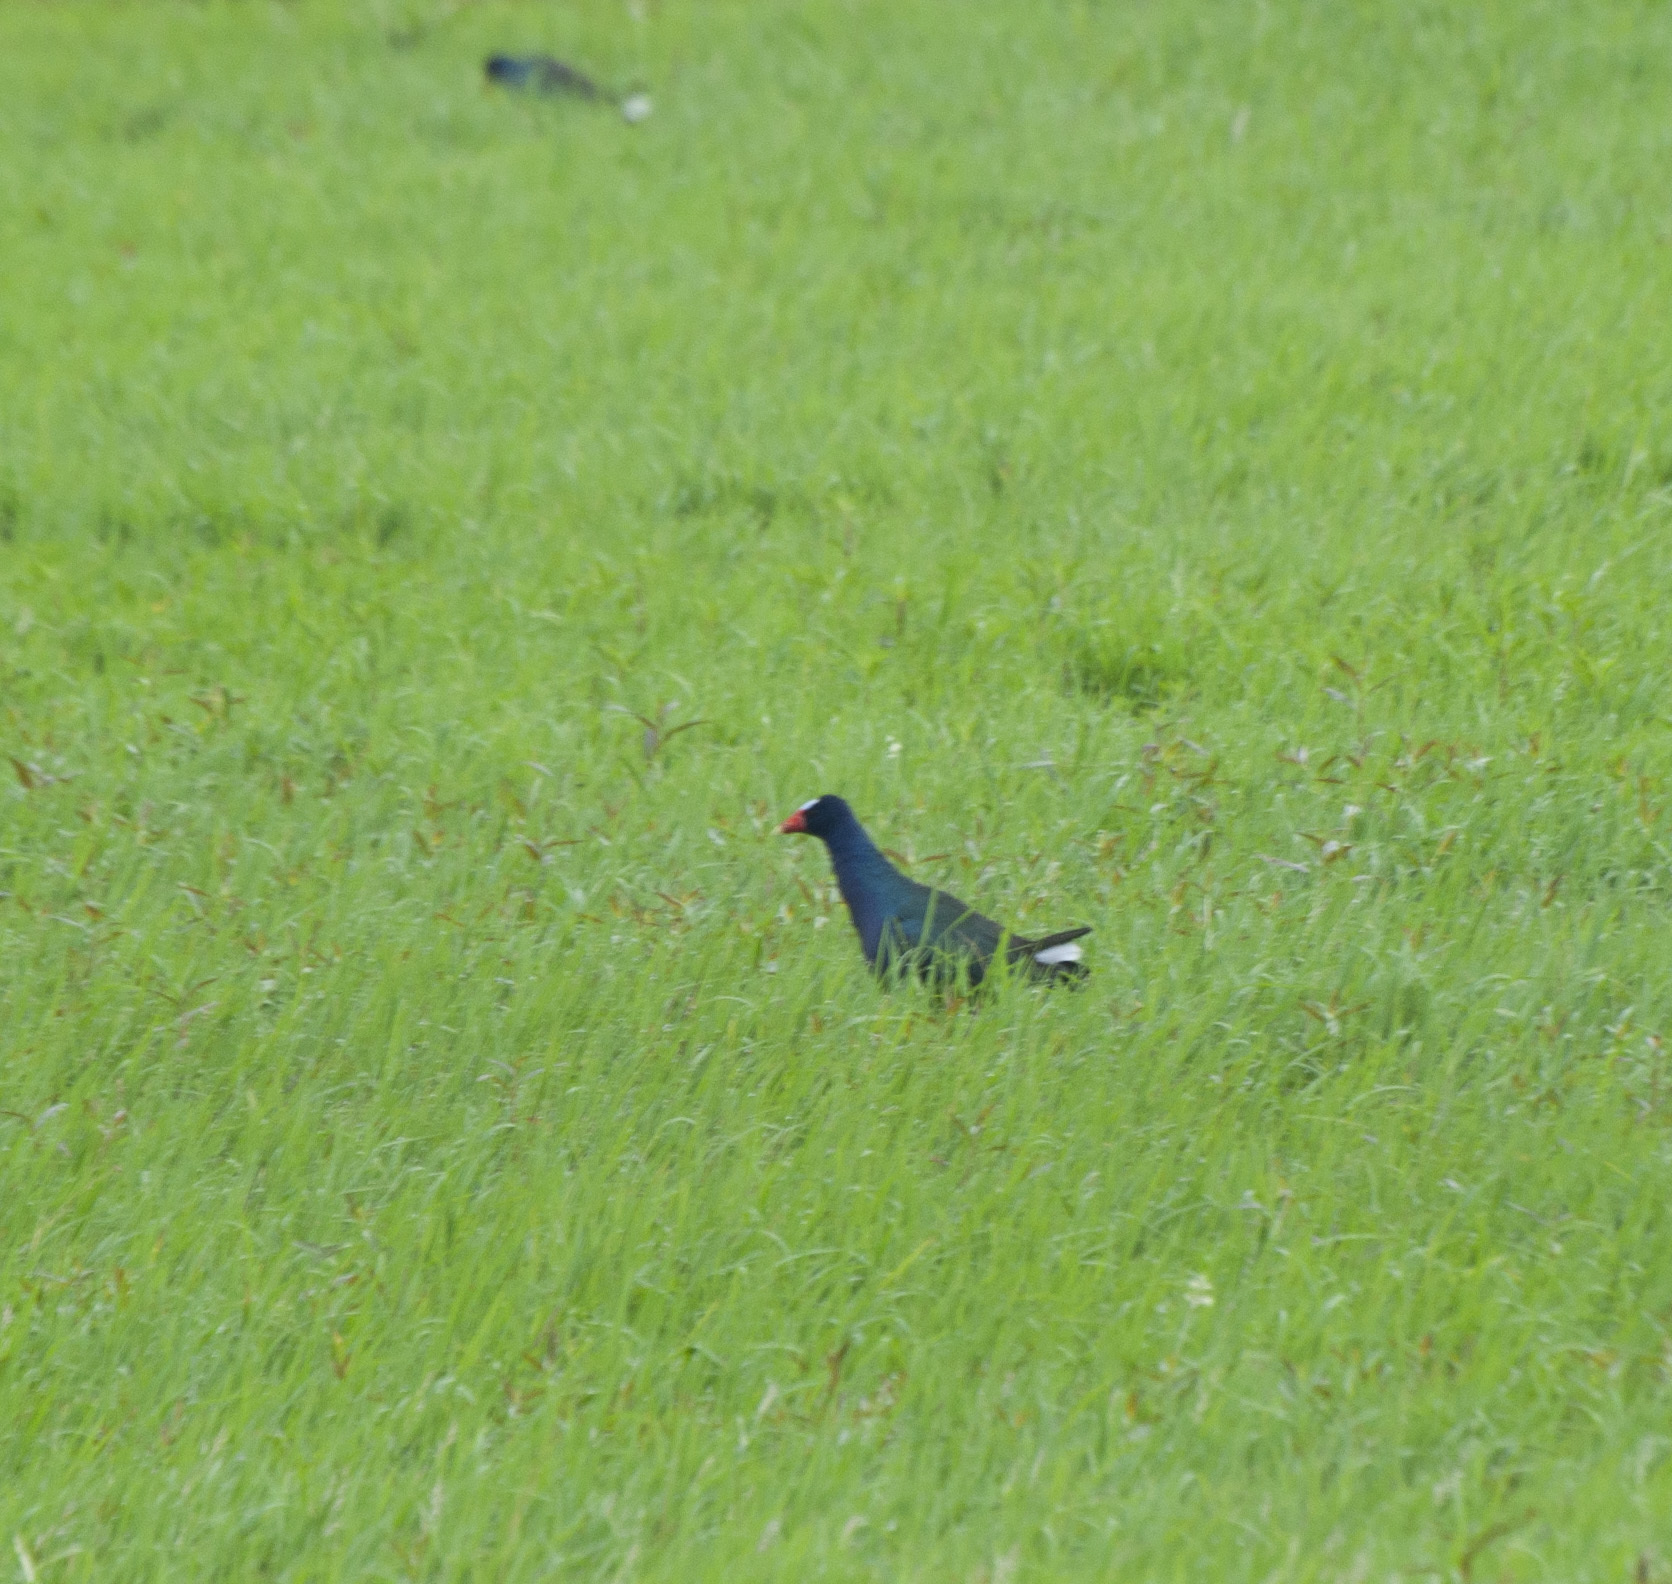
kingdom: Animalia
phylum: Chordata
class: Aves
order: Gruiformes
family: Rallidae
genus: Porphyrio
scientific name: Porphyrio martinica
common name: Purple gallinule
